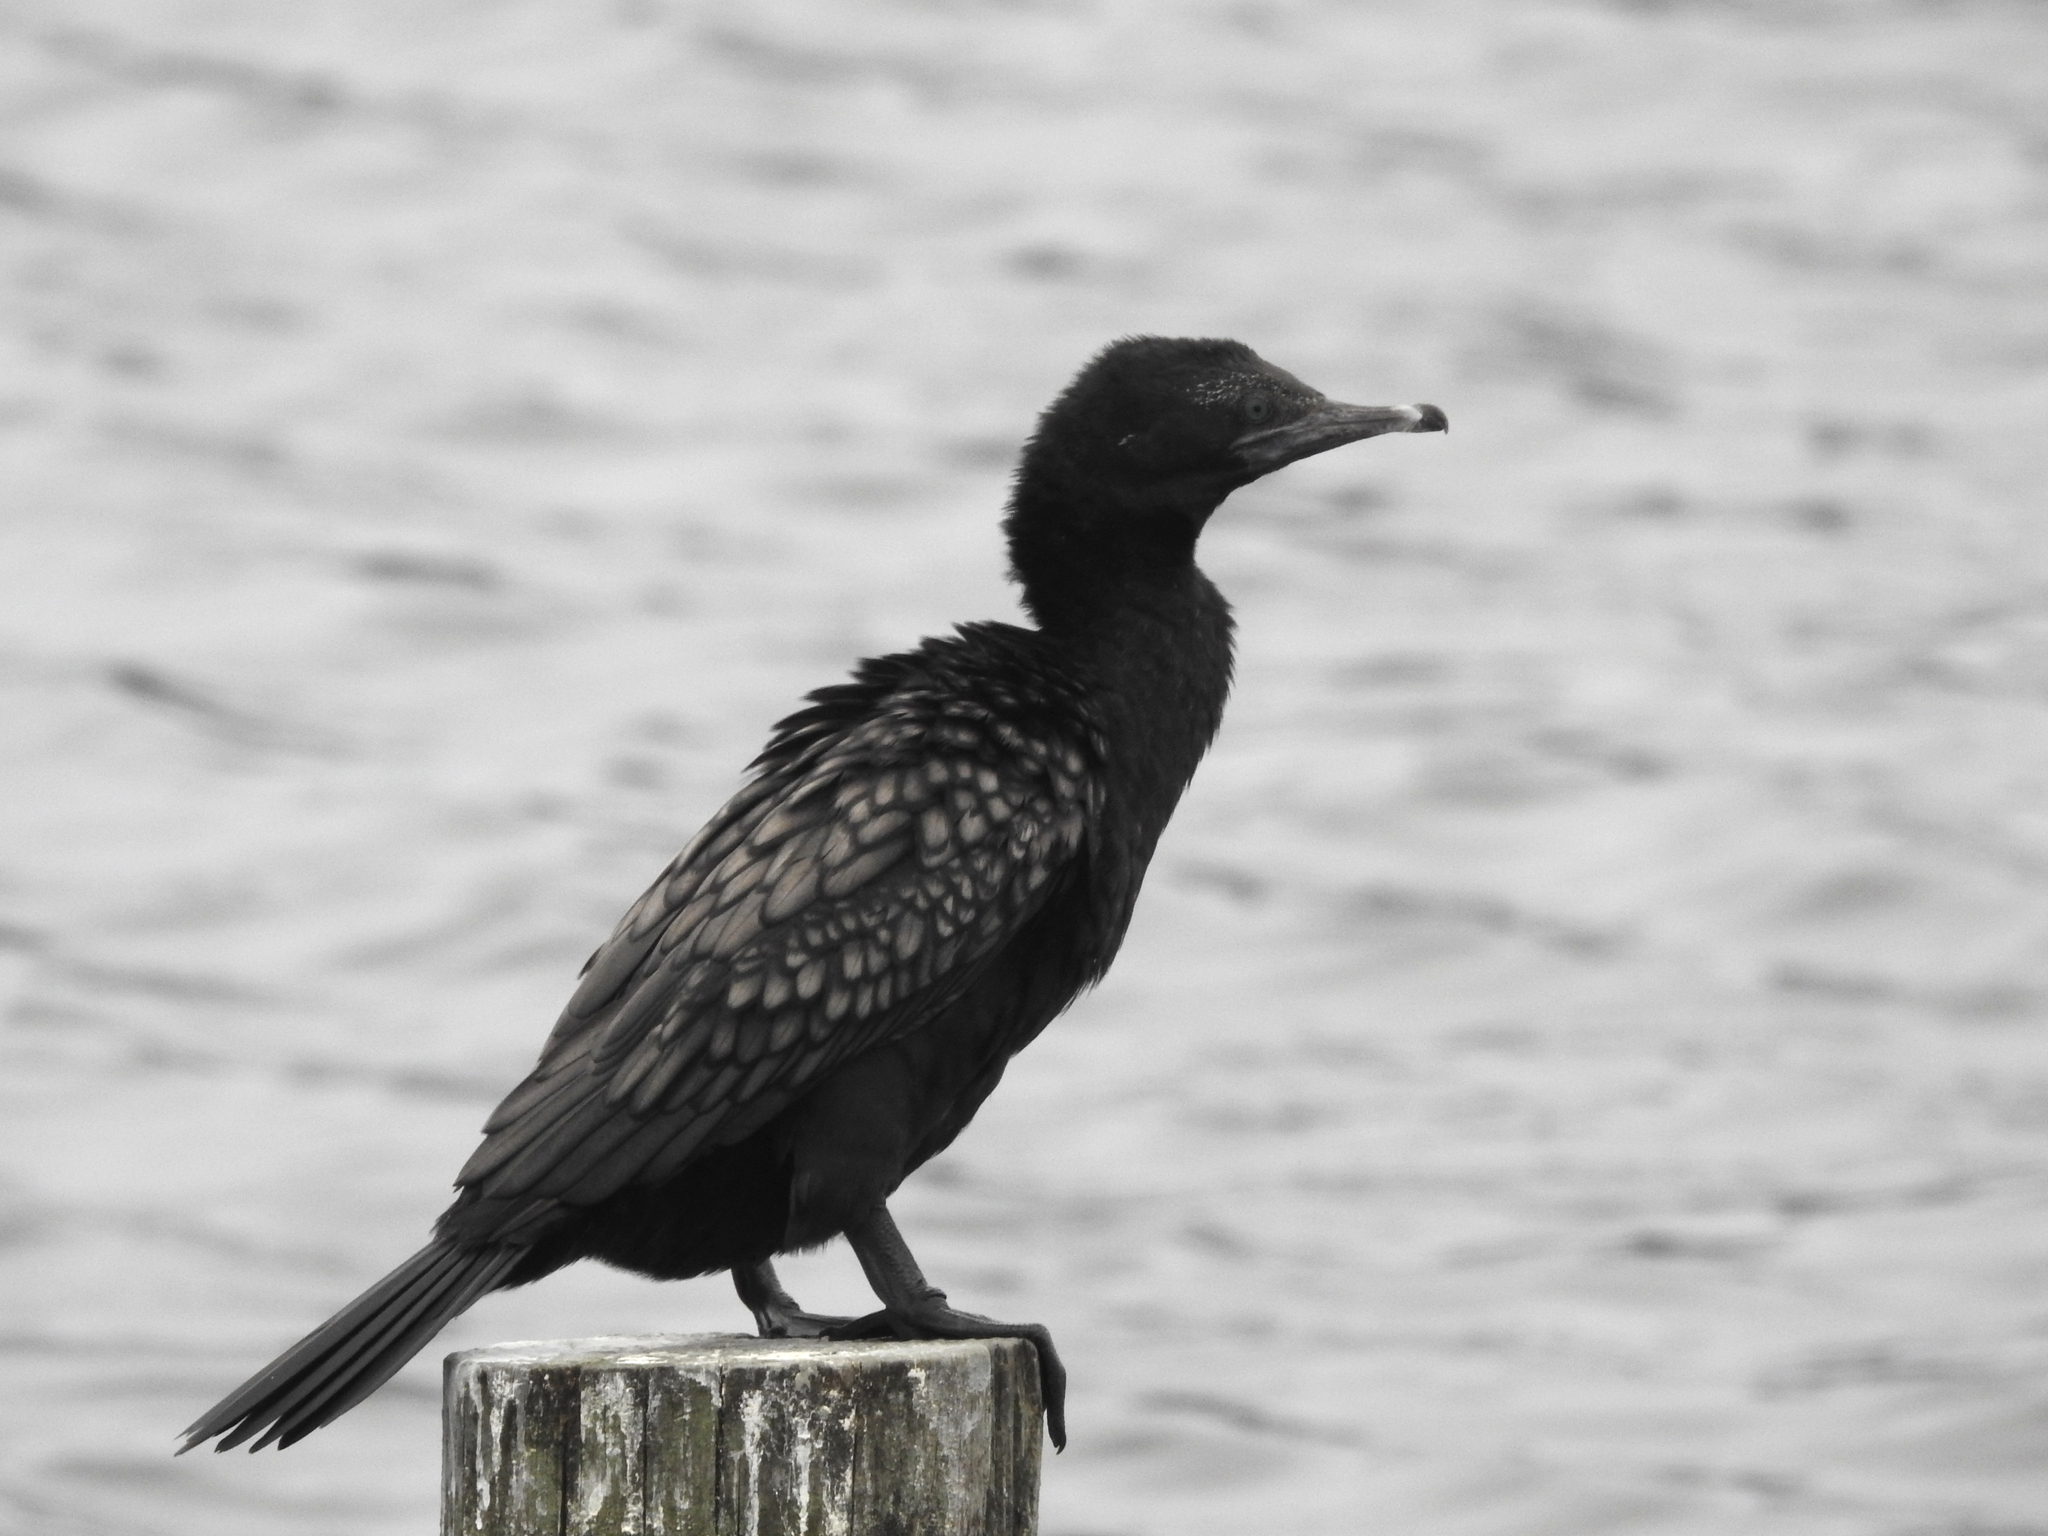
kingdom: Animalia
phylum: Chordata
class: Aves
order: Suliformes
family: Phalacrocoracidae
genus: Phalacrocorax
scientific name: Phalacrocorax sulcirostris
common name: Little black cormorant
